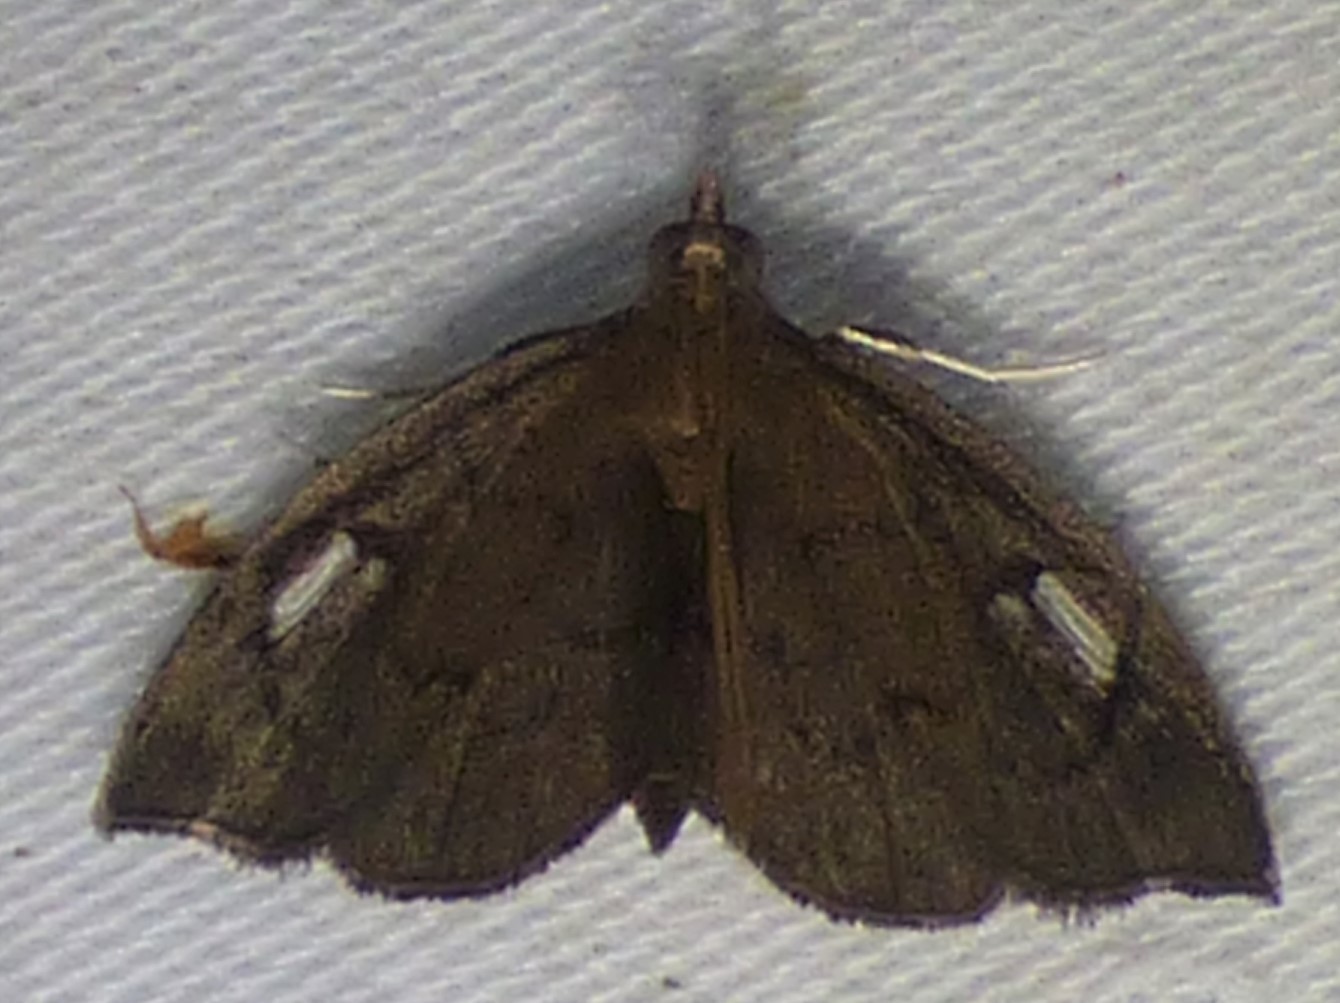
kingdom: Animalia
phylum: Arthropoda
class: Insecta
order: Lepidoptera
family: Crambidae
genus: Perispasta
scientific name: Perispasta caeculalis
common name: Titian peale's moth
